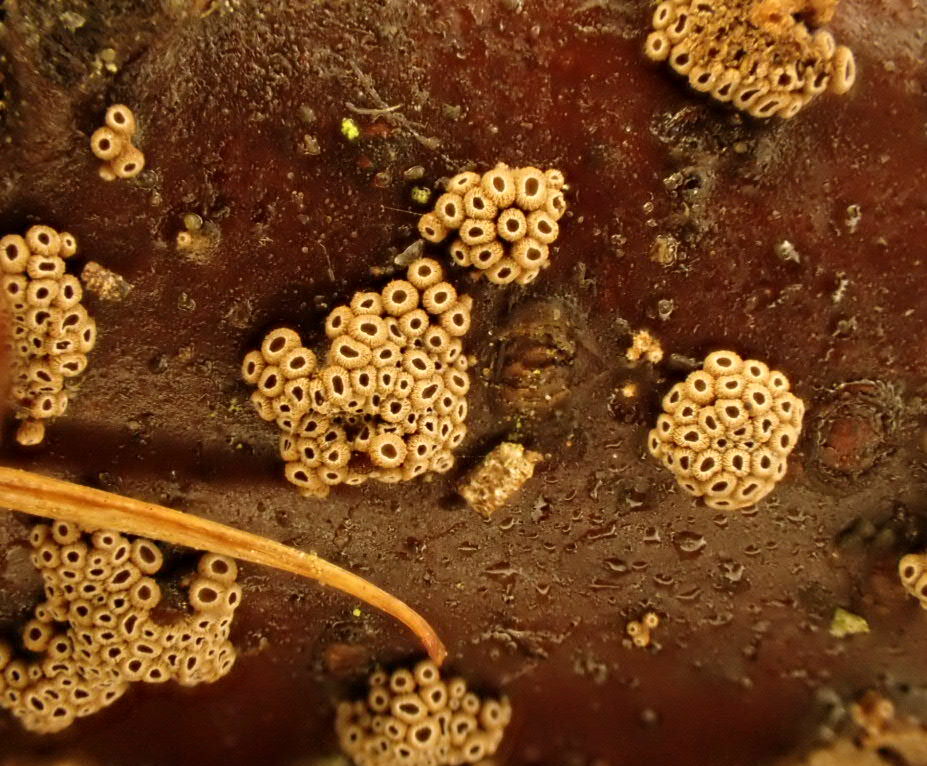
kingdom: Fungi
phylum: Basidiomycota
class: Agaricomycetes
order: Agaricales
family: Niaceae
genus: Merismodes
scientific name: Merismodes fasciculata
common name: Crowded cuplet
